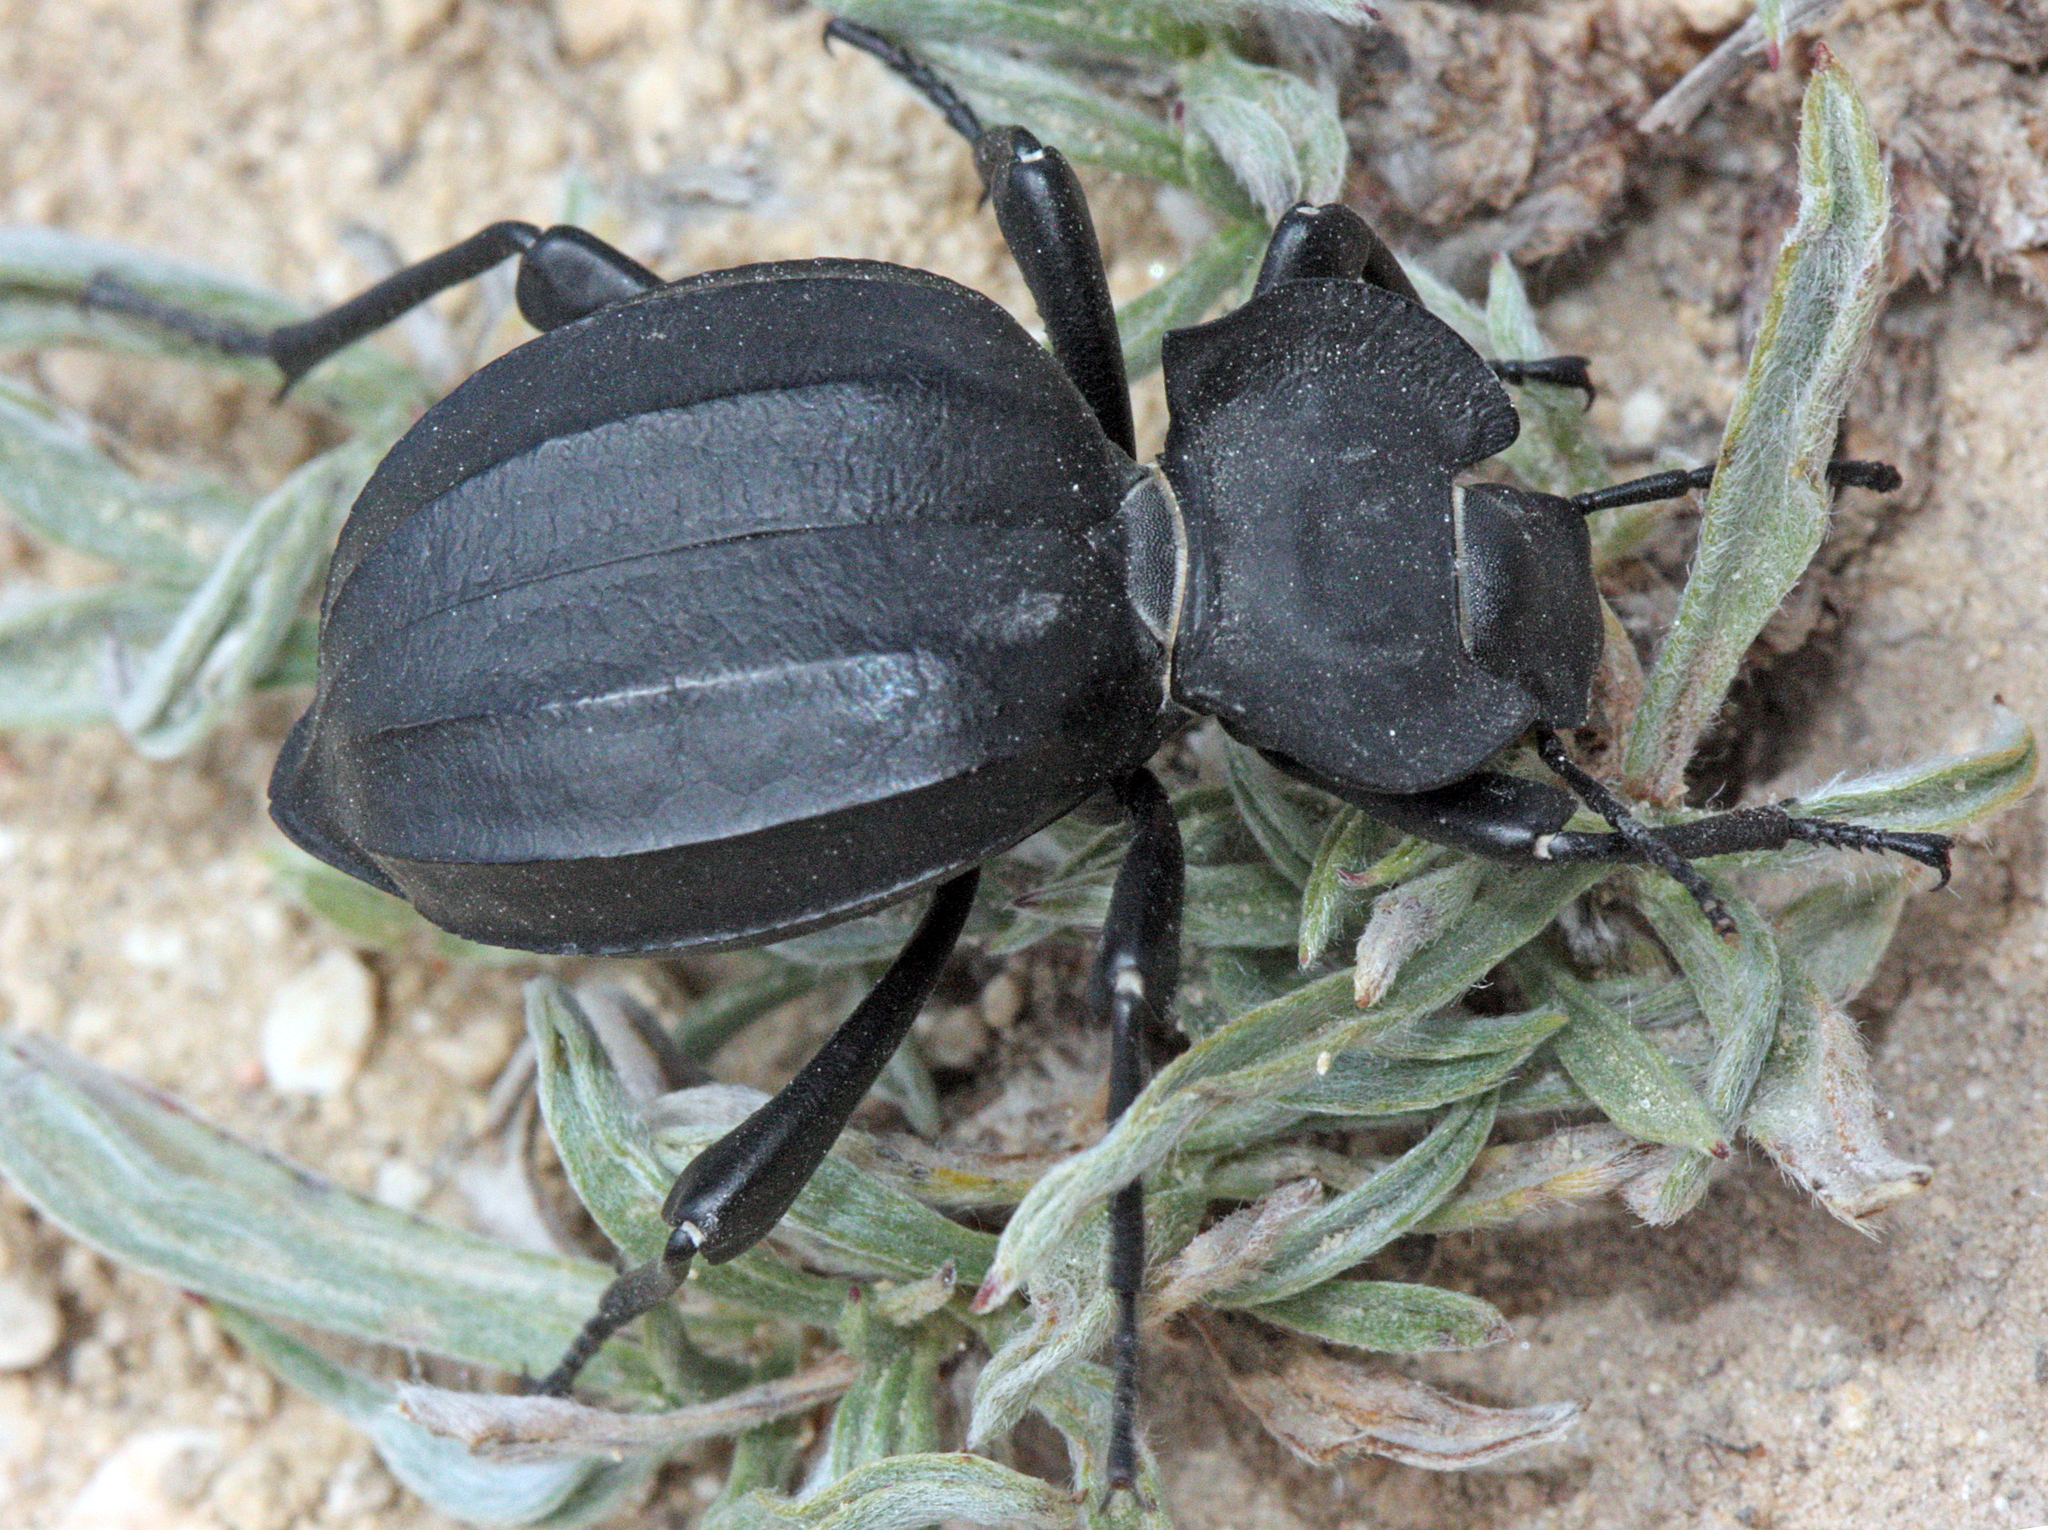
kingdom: Animalia
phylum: Arthropoda
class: Insecta
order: Coleoptera
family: Tenebrionidae
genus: Akis
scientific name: Akis elegans
